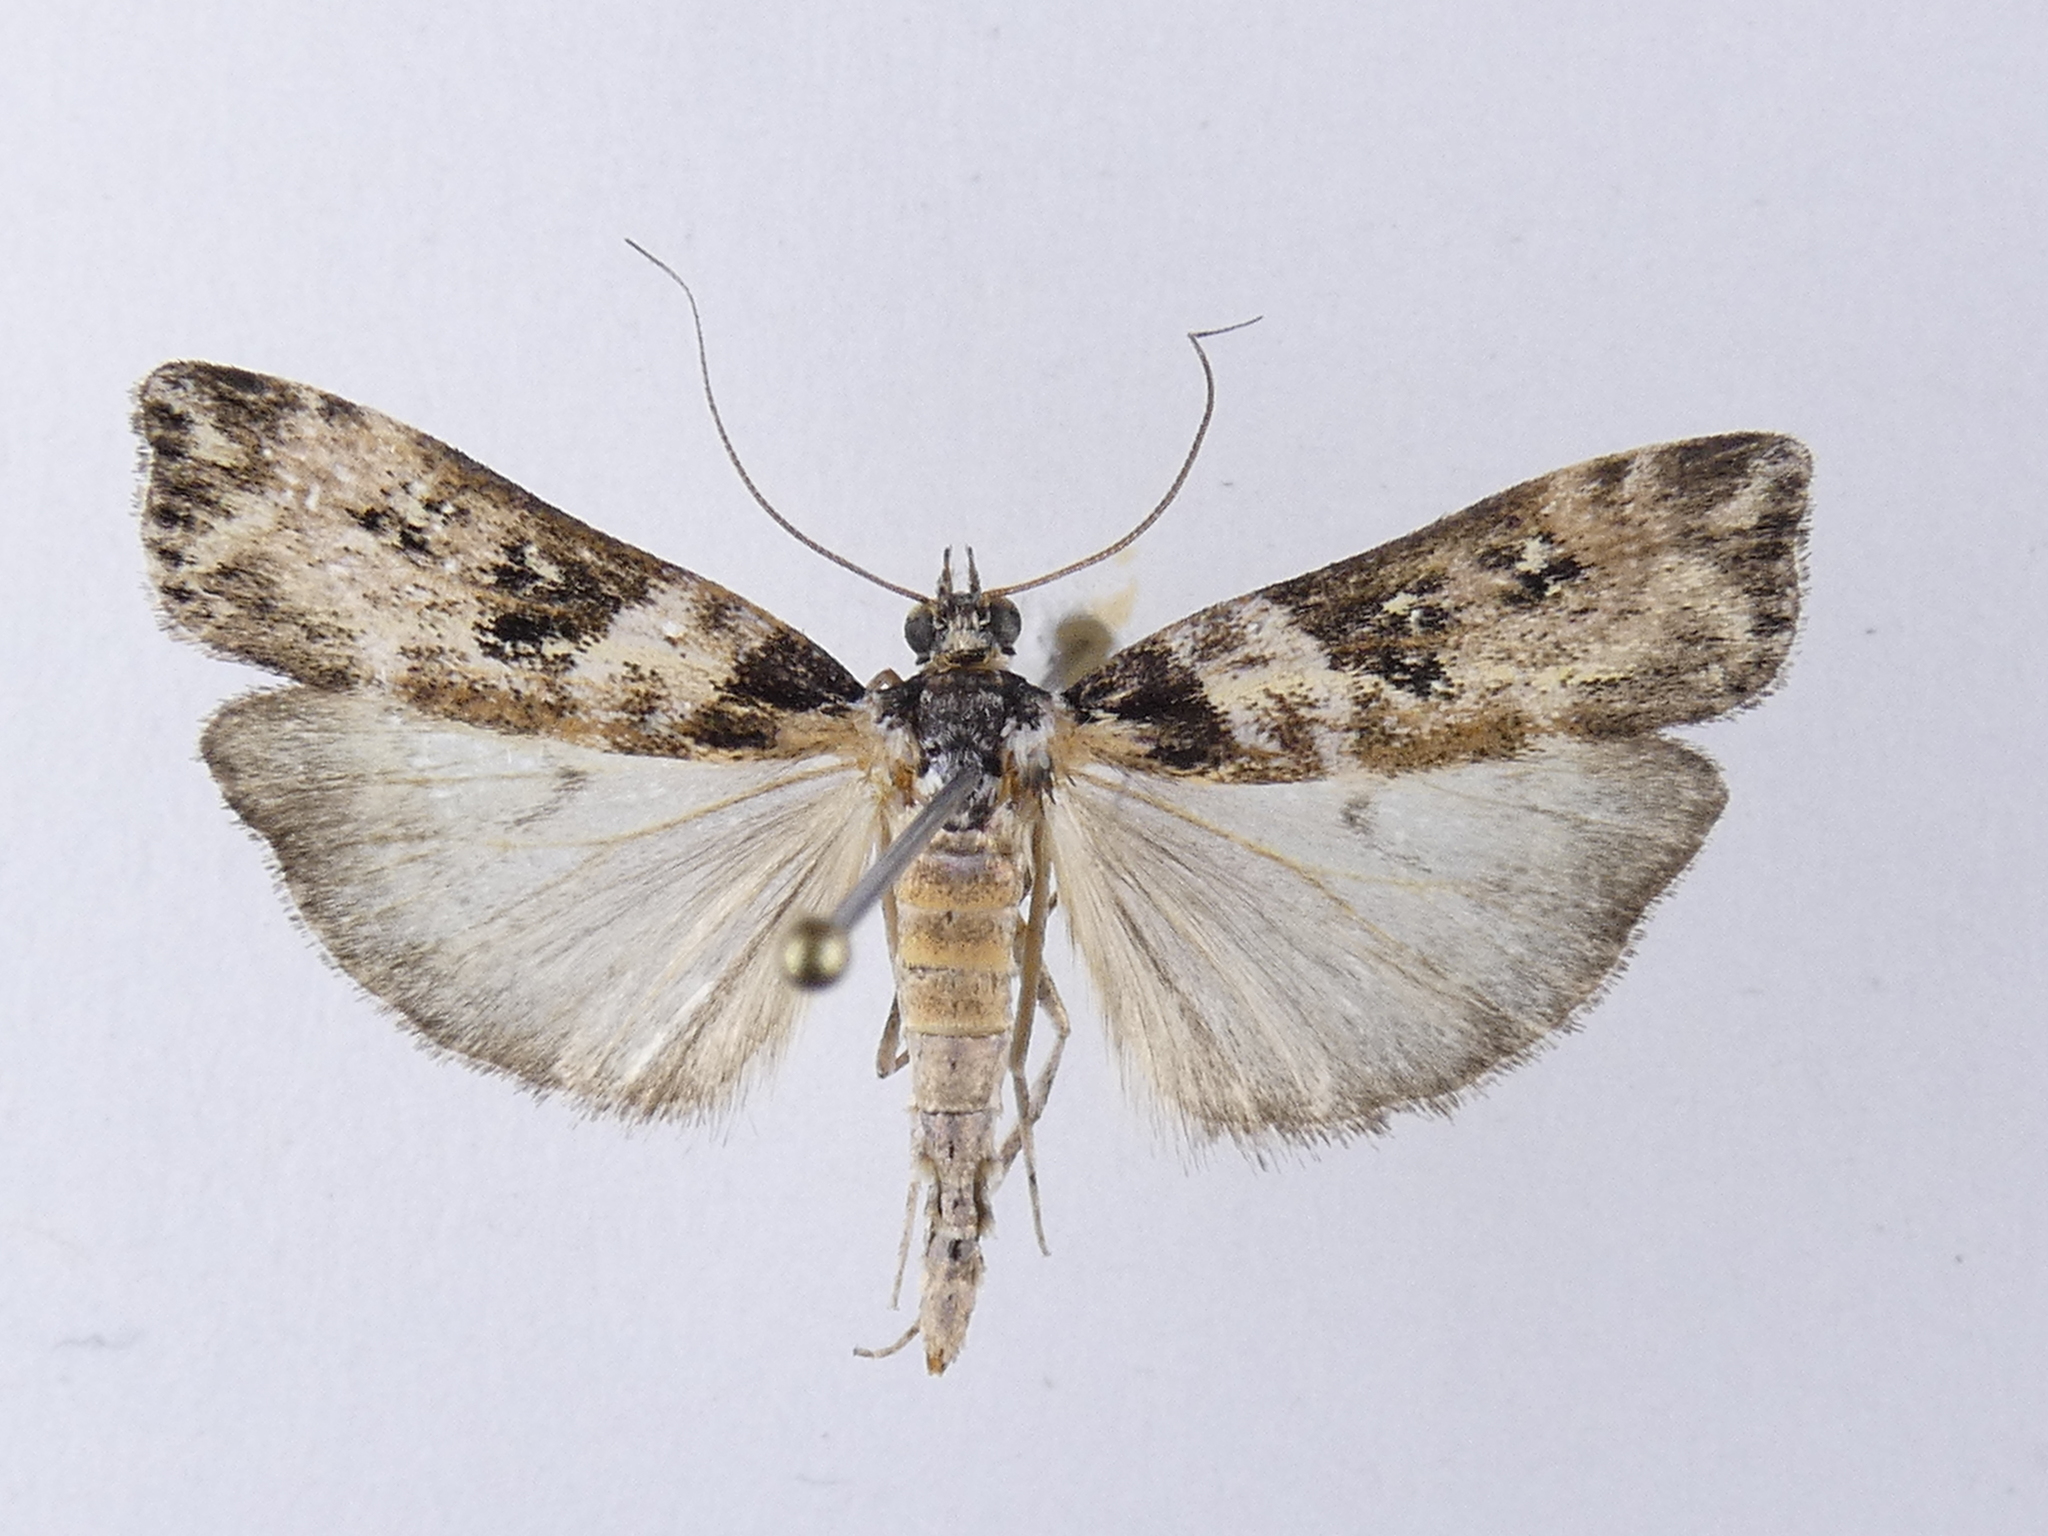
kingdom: Animalia
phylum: Arthropoda
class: Insecta
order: Lepidoptera
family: Crambidae
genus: Eudonia
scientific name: Eudonia diphtheralis
